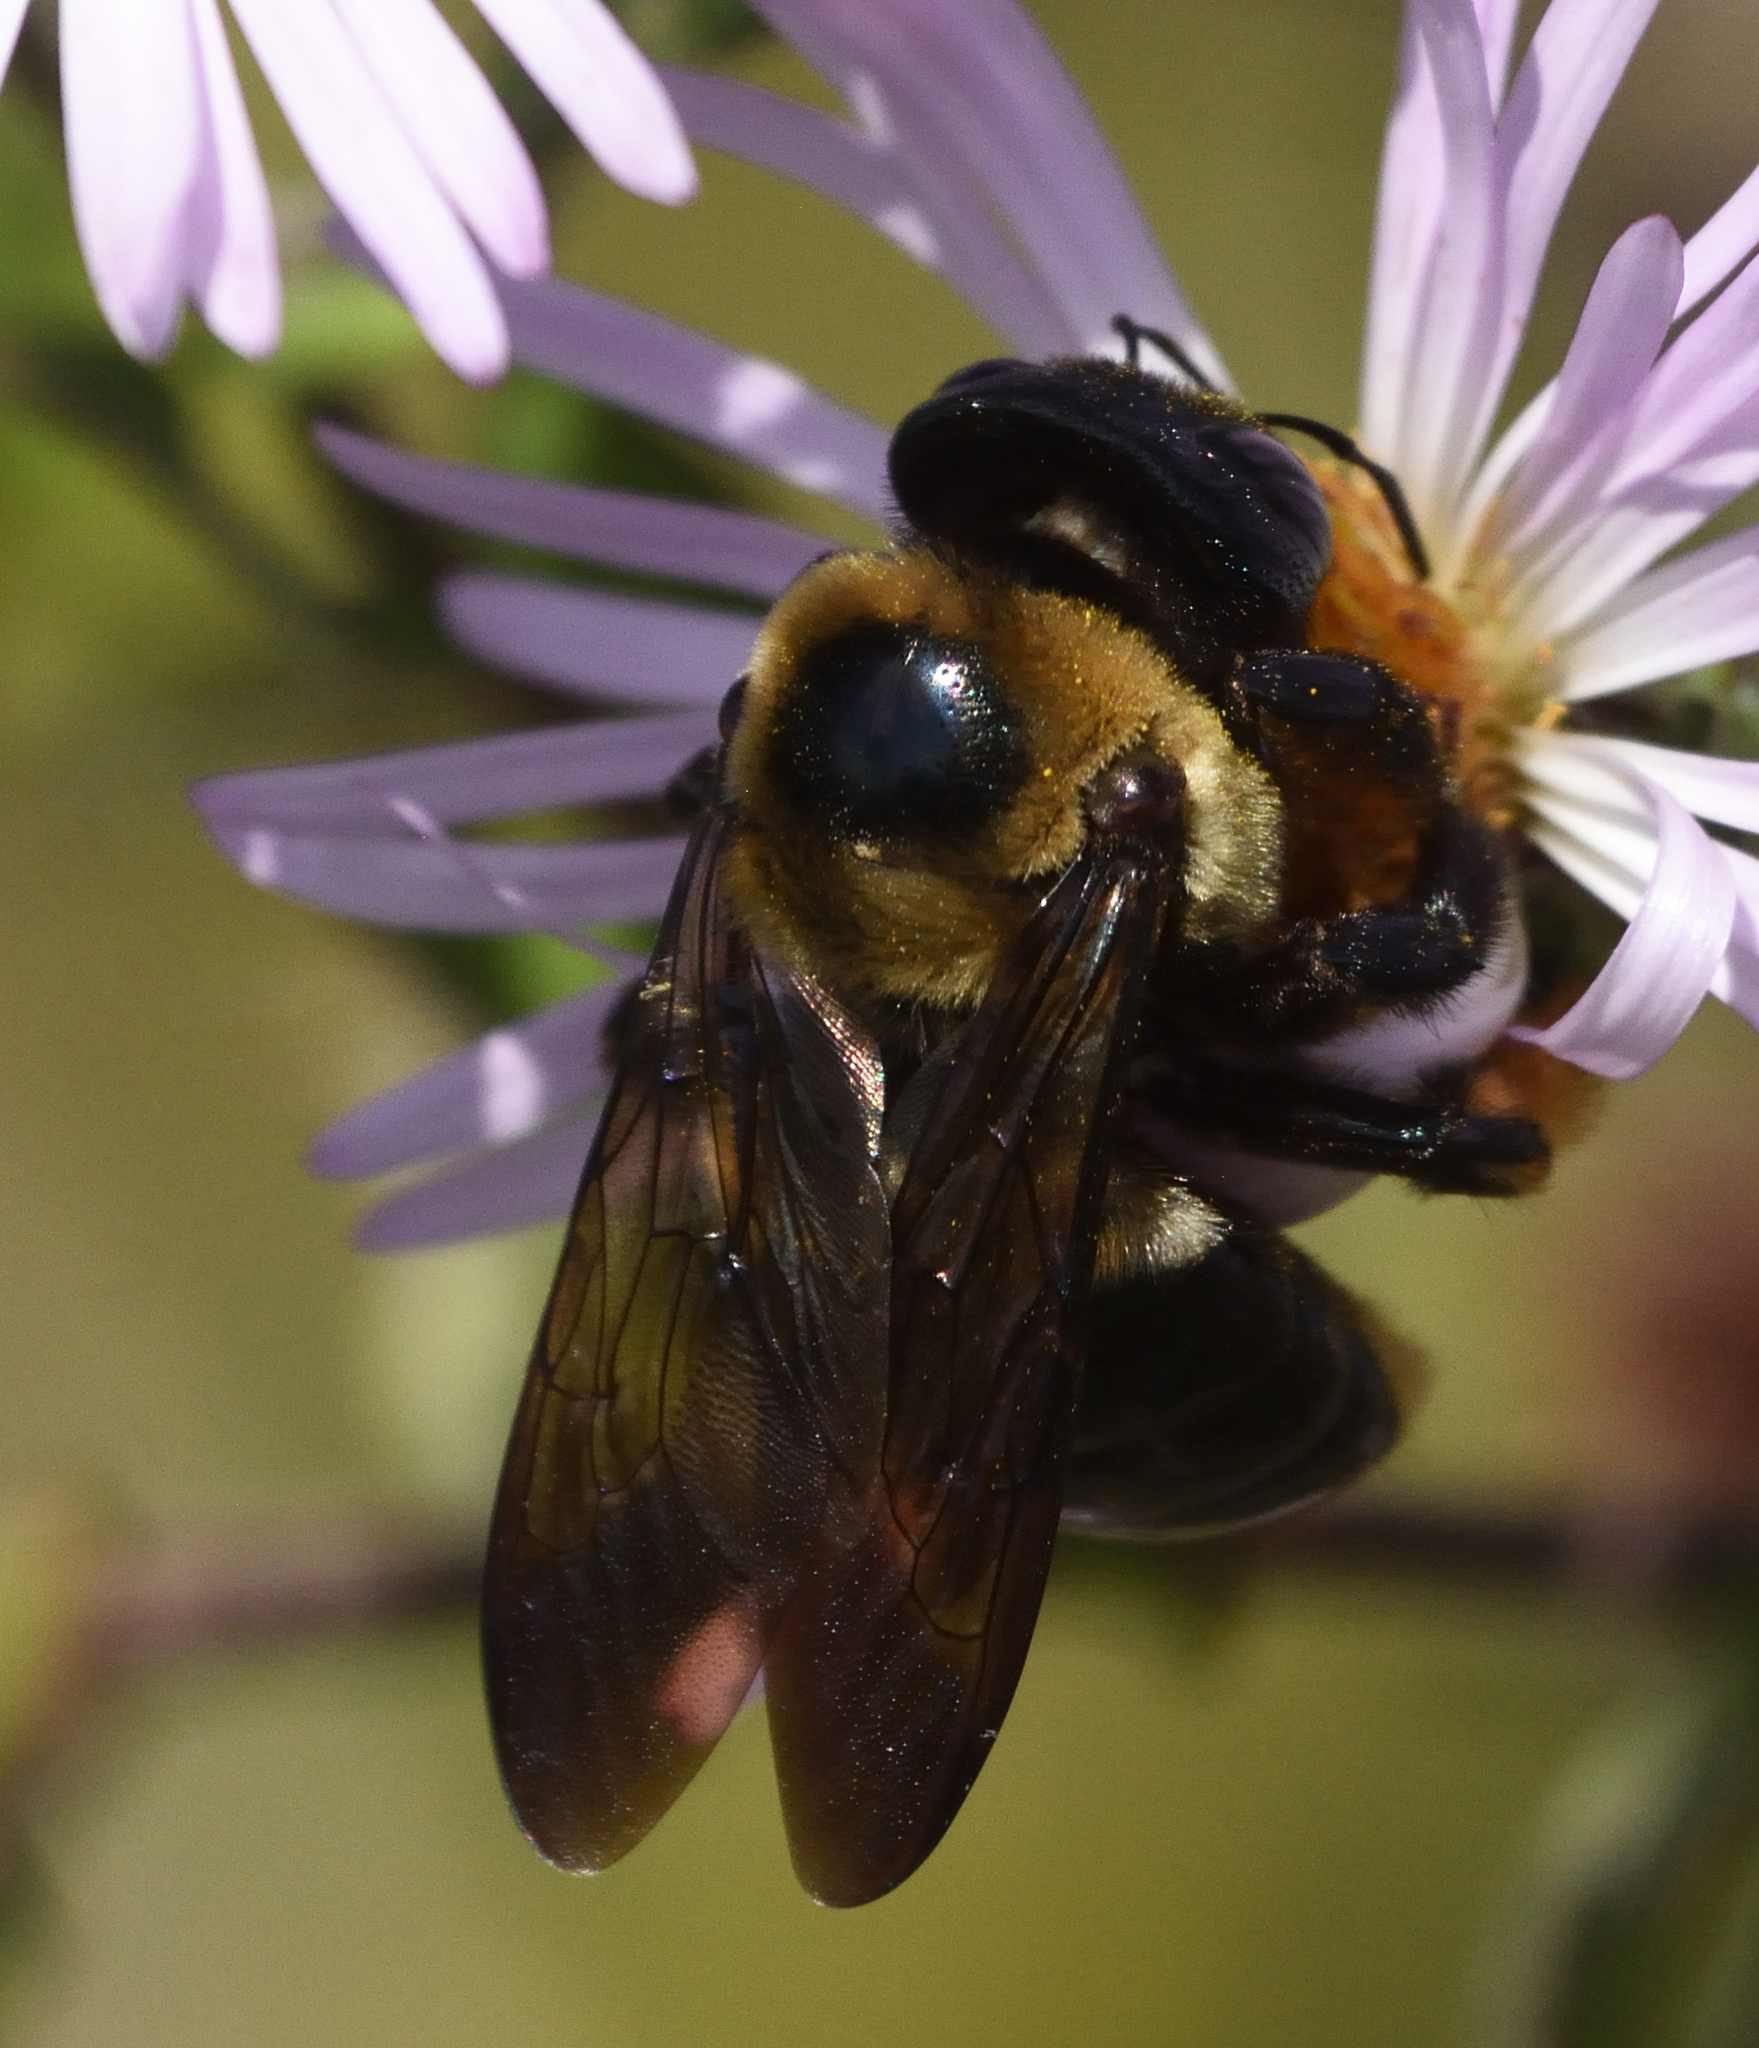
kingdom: Animalia
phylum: Arthropoda
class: Insecta
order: Hymenoptera
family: Apidae
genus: Xylocopa
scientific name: Xylocopa virginica
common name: Carpenter bee
